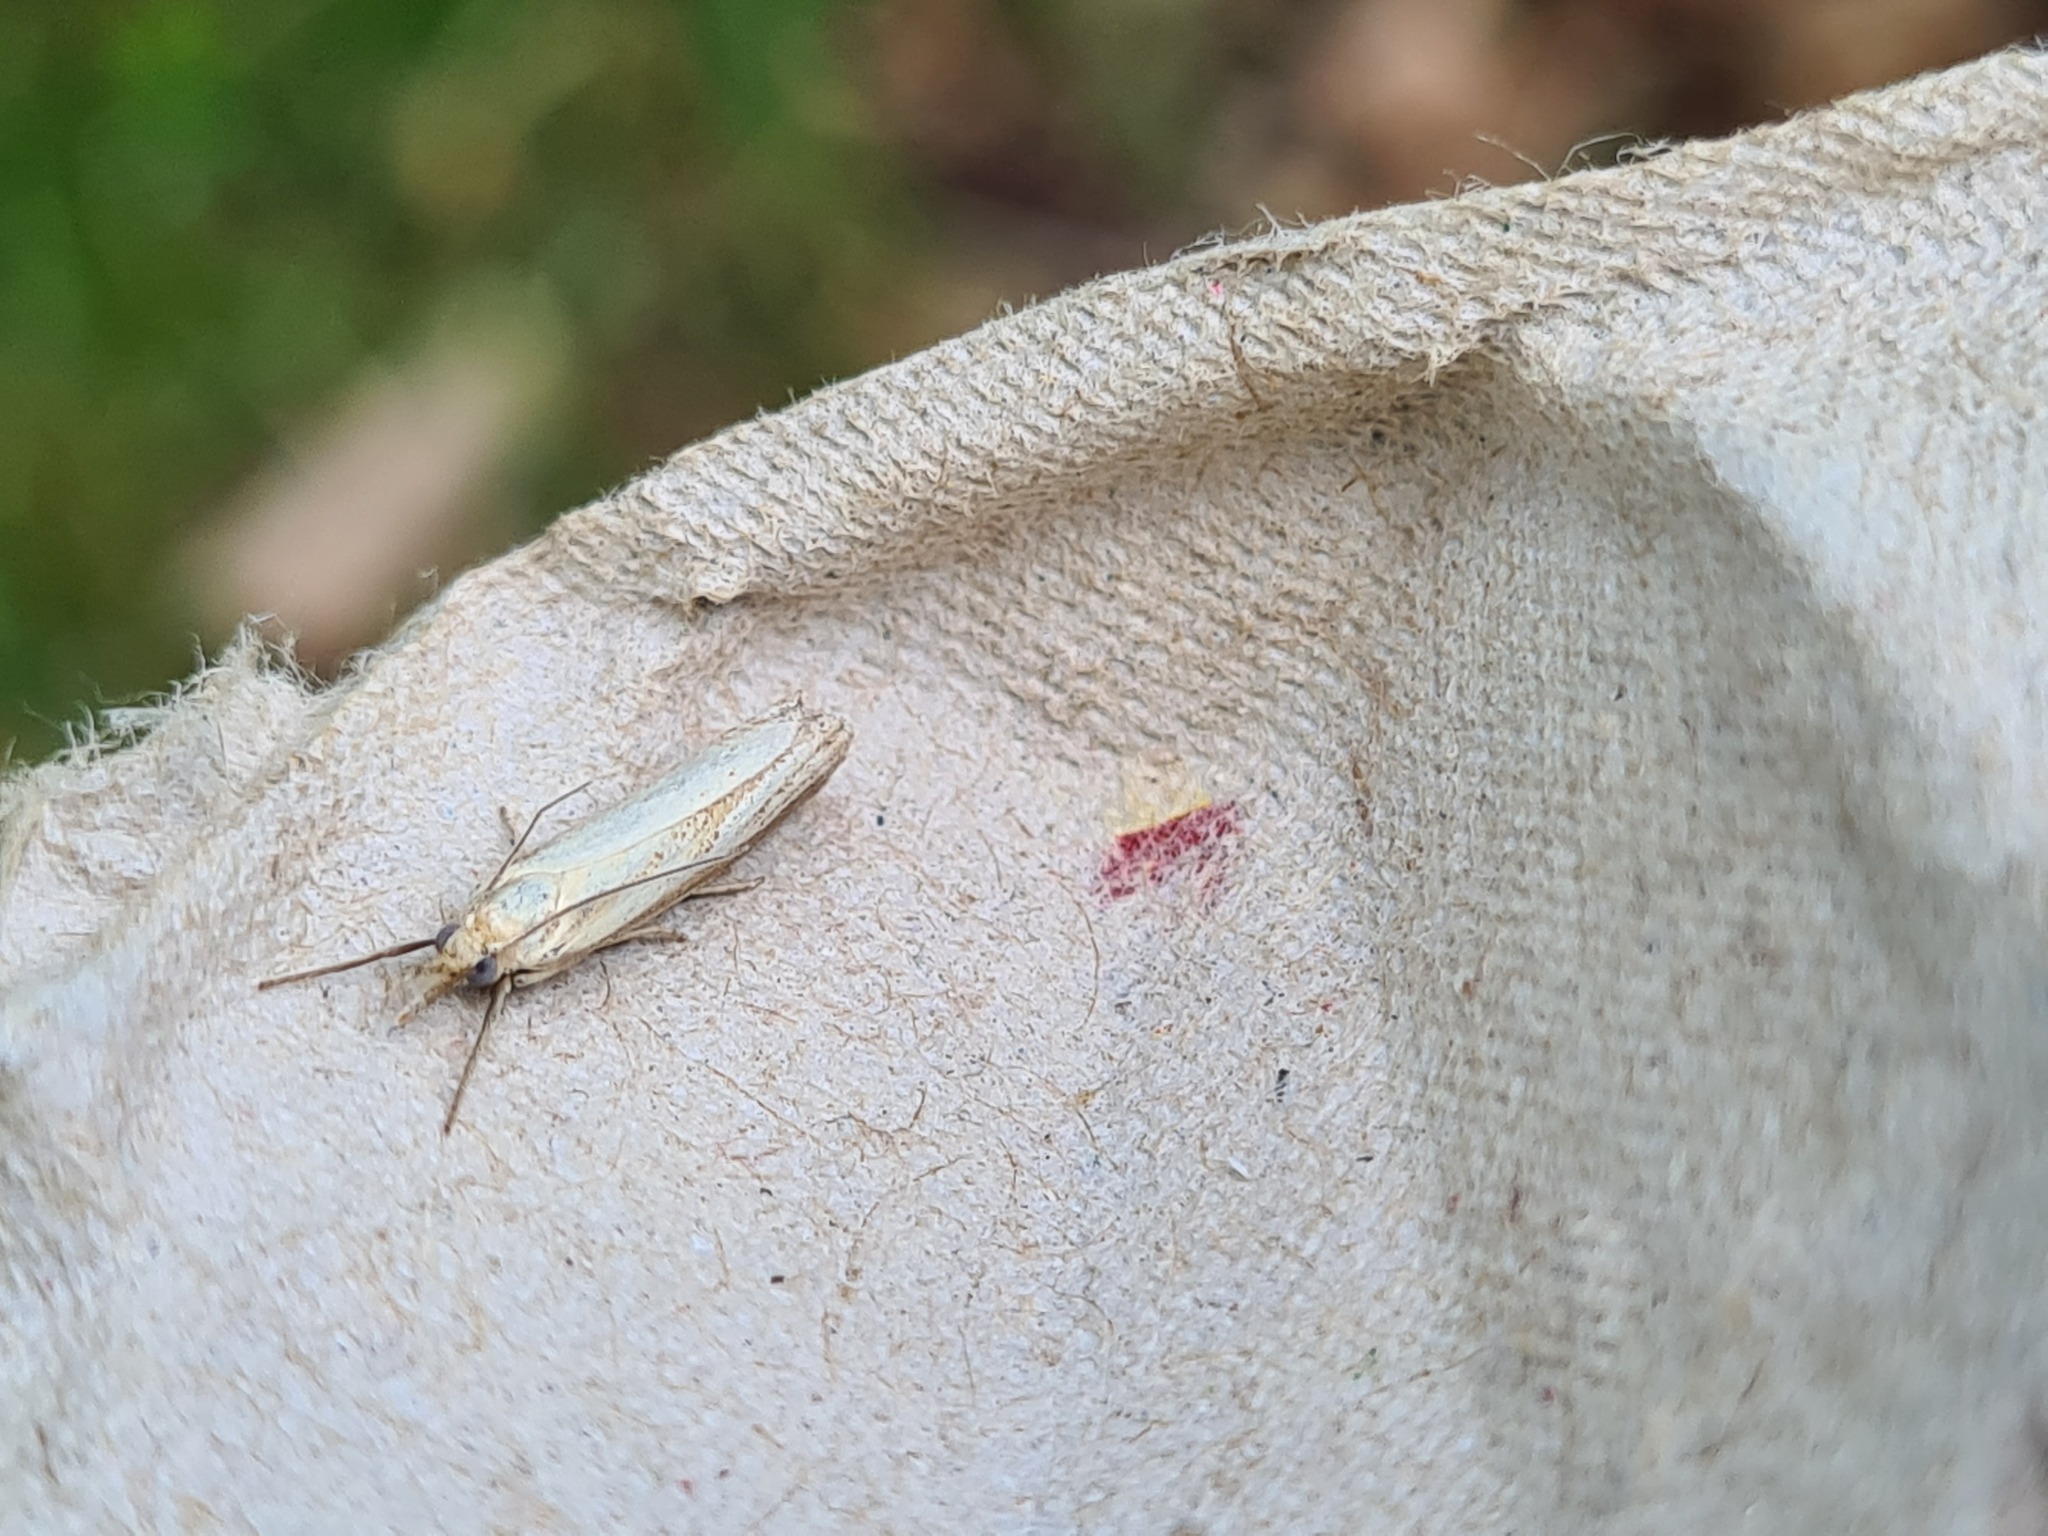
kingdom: Animalia
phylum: Arthropoda
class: Insecta
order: Lepidoptera
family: Crambidae
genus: Agriphila
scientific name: Agriphila straminella
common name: Straw grass-veneer
